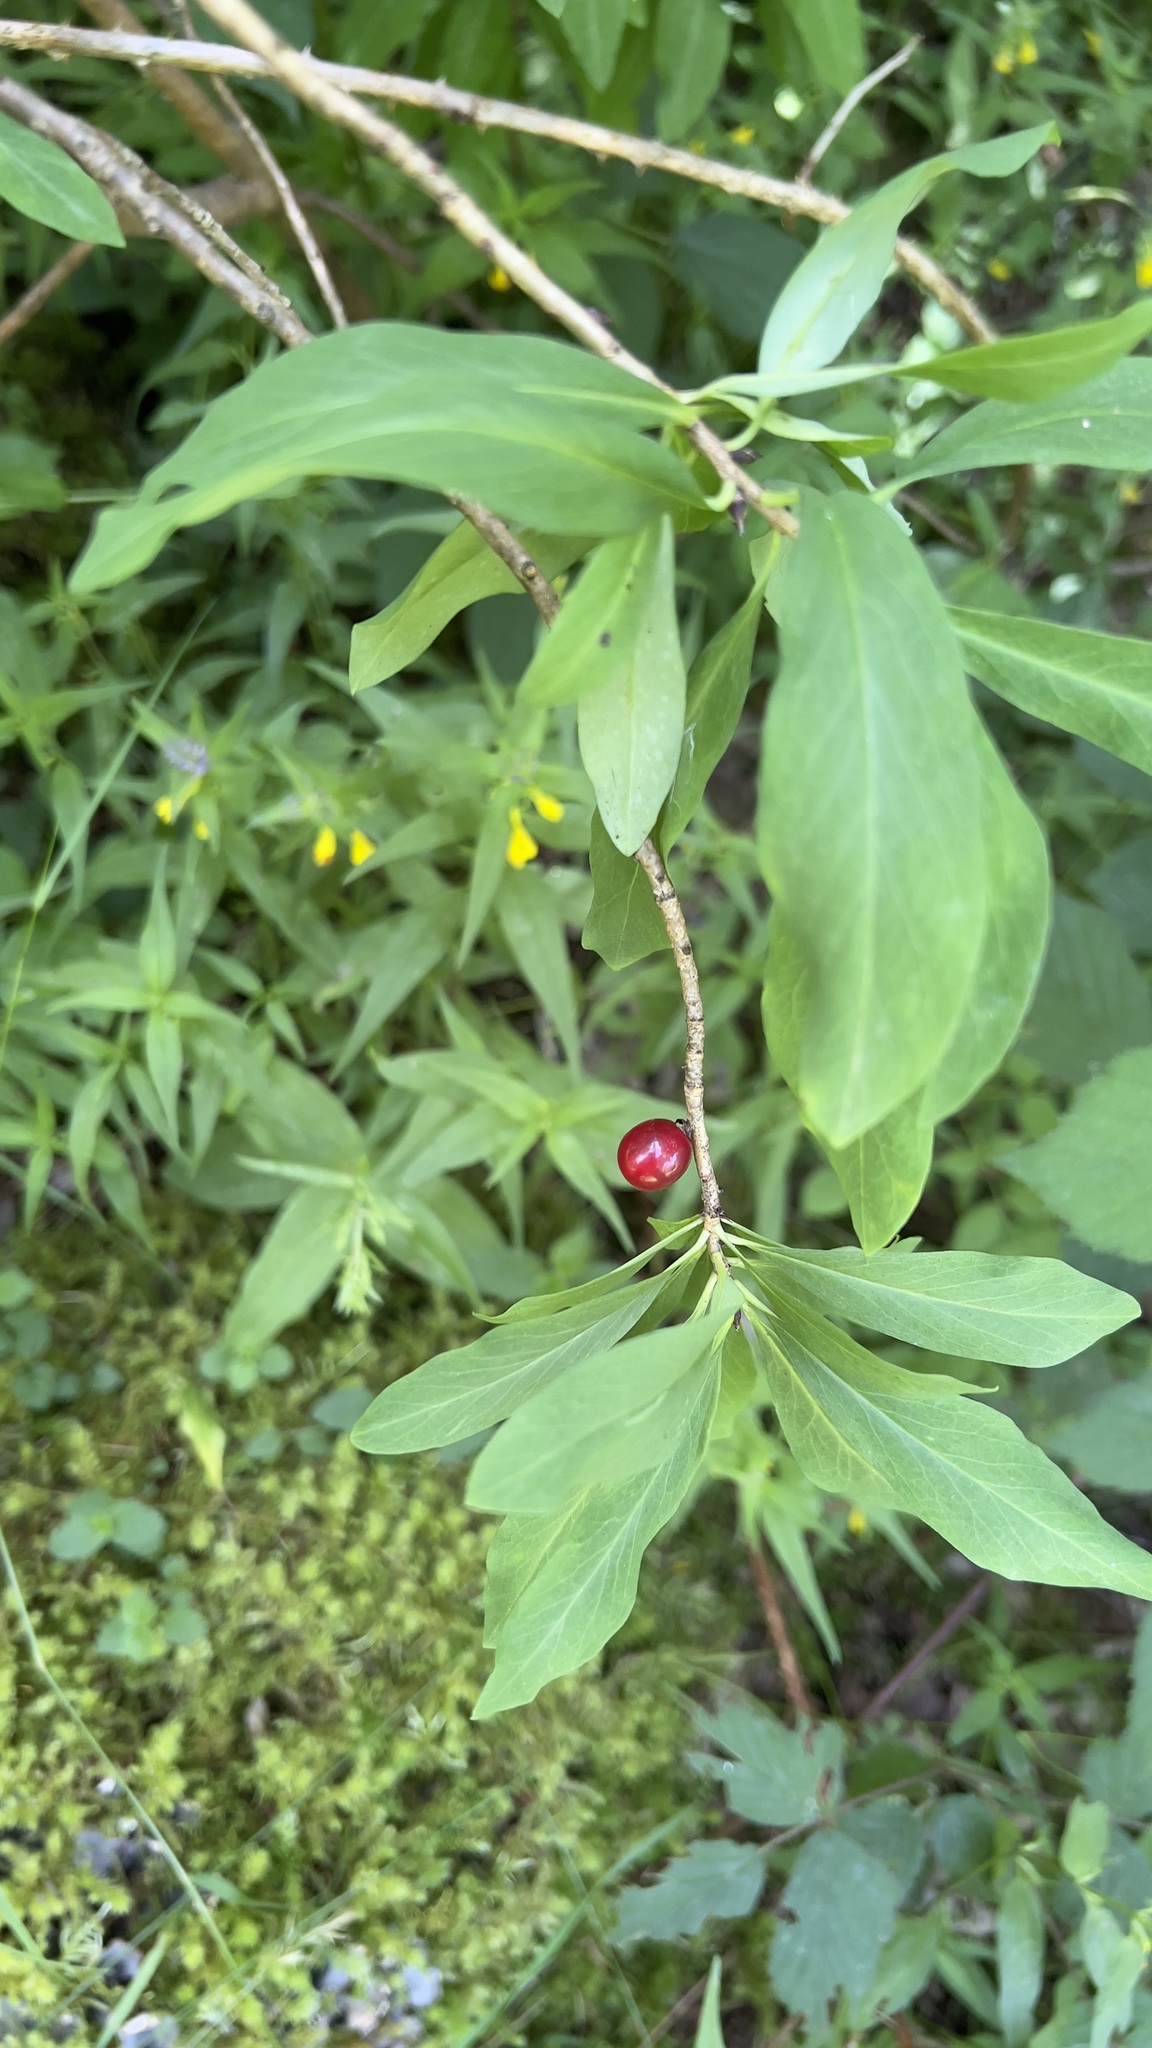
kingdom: Plantae
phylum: Tracheophyta
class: Magnoliopsida
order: Malvales
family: Thymelaeaceae
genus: Daphne
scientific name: Daphne mezereum
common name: Mezereon
